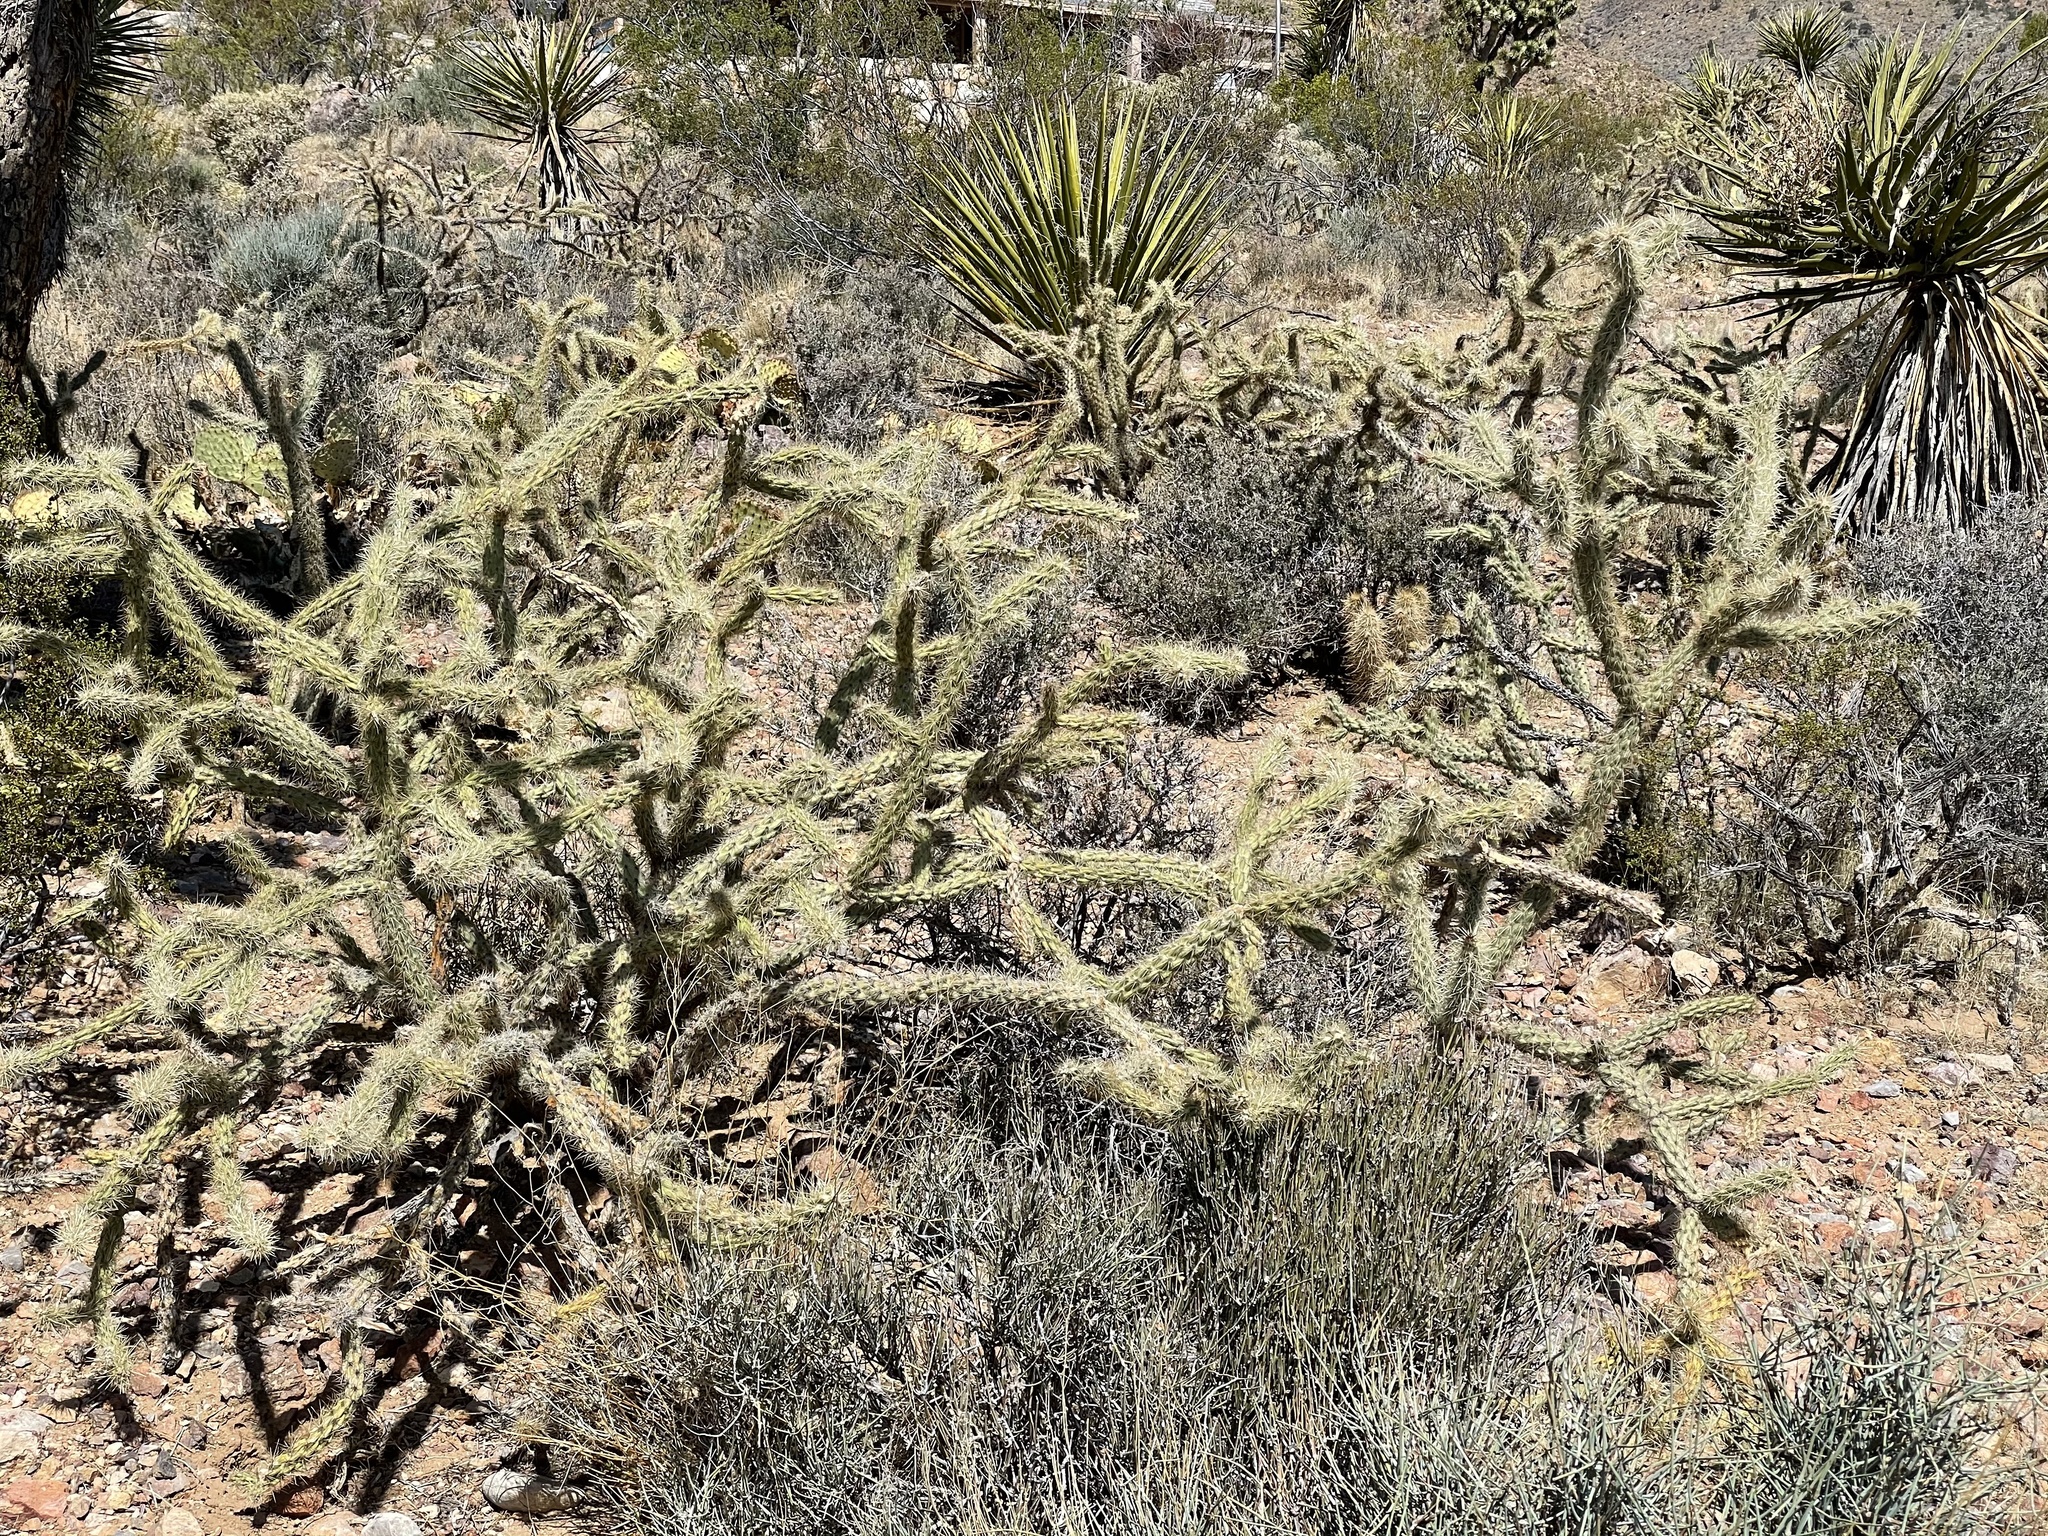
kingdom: Plantae
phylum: Tracheophyta
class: Magnoliopsida
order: Caryophyllales
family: Cactaceae
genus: Cylindropuntia
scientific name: Cylindropuntia acanthocarpa
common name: Buckhorn cholla
